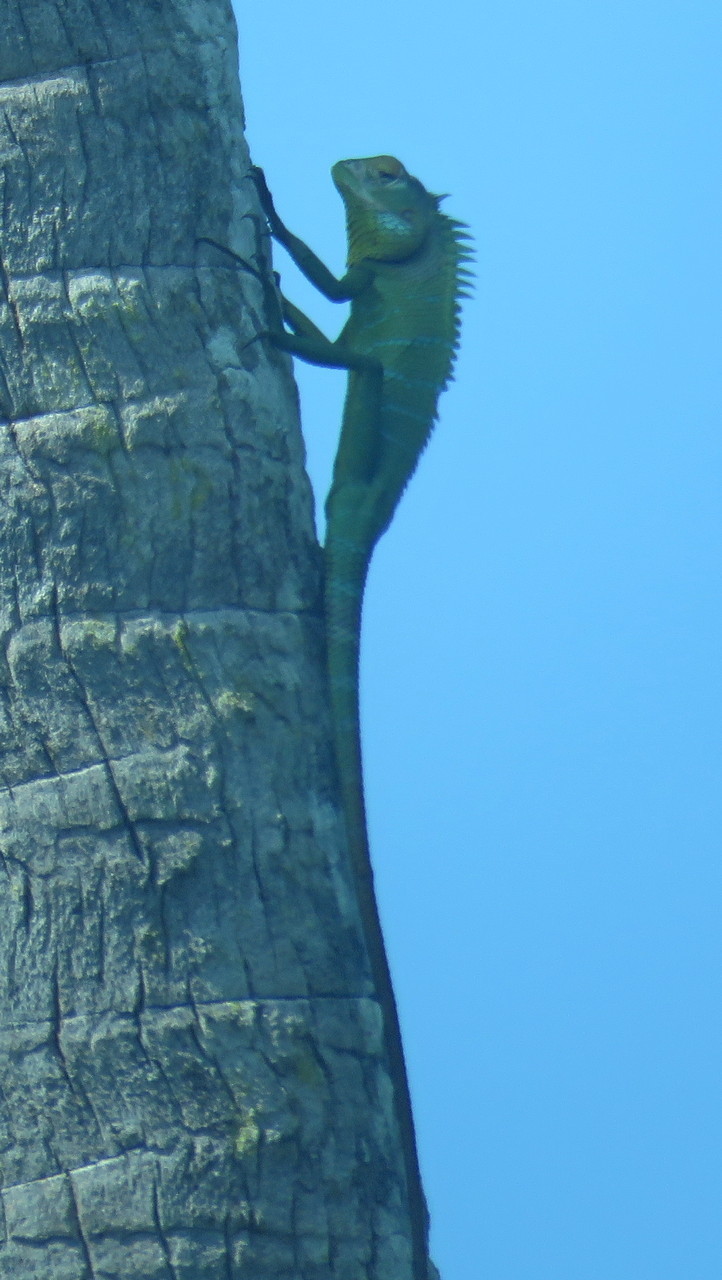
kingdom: Animalia
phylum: Chordata
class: Squamata
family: Agamidae
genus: Calotes
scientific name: Calotes versicolor
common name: Oriental garden lizard
